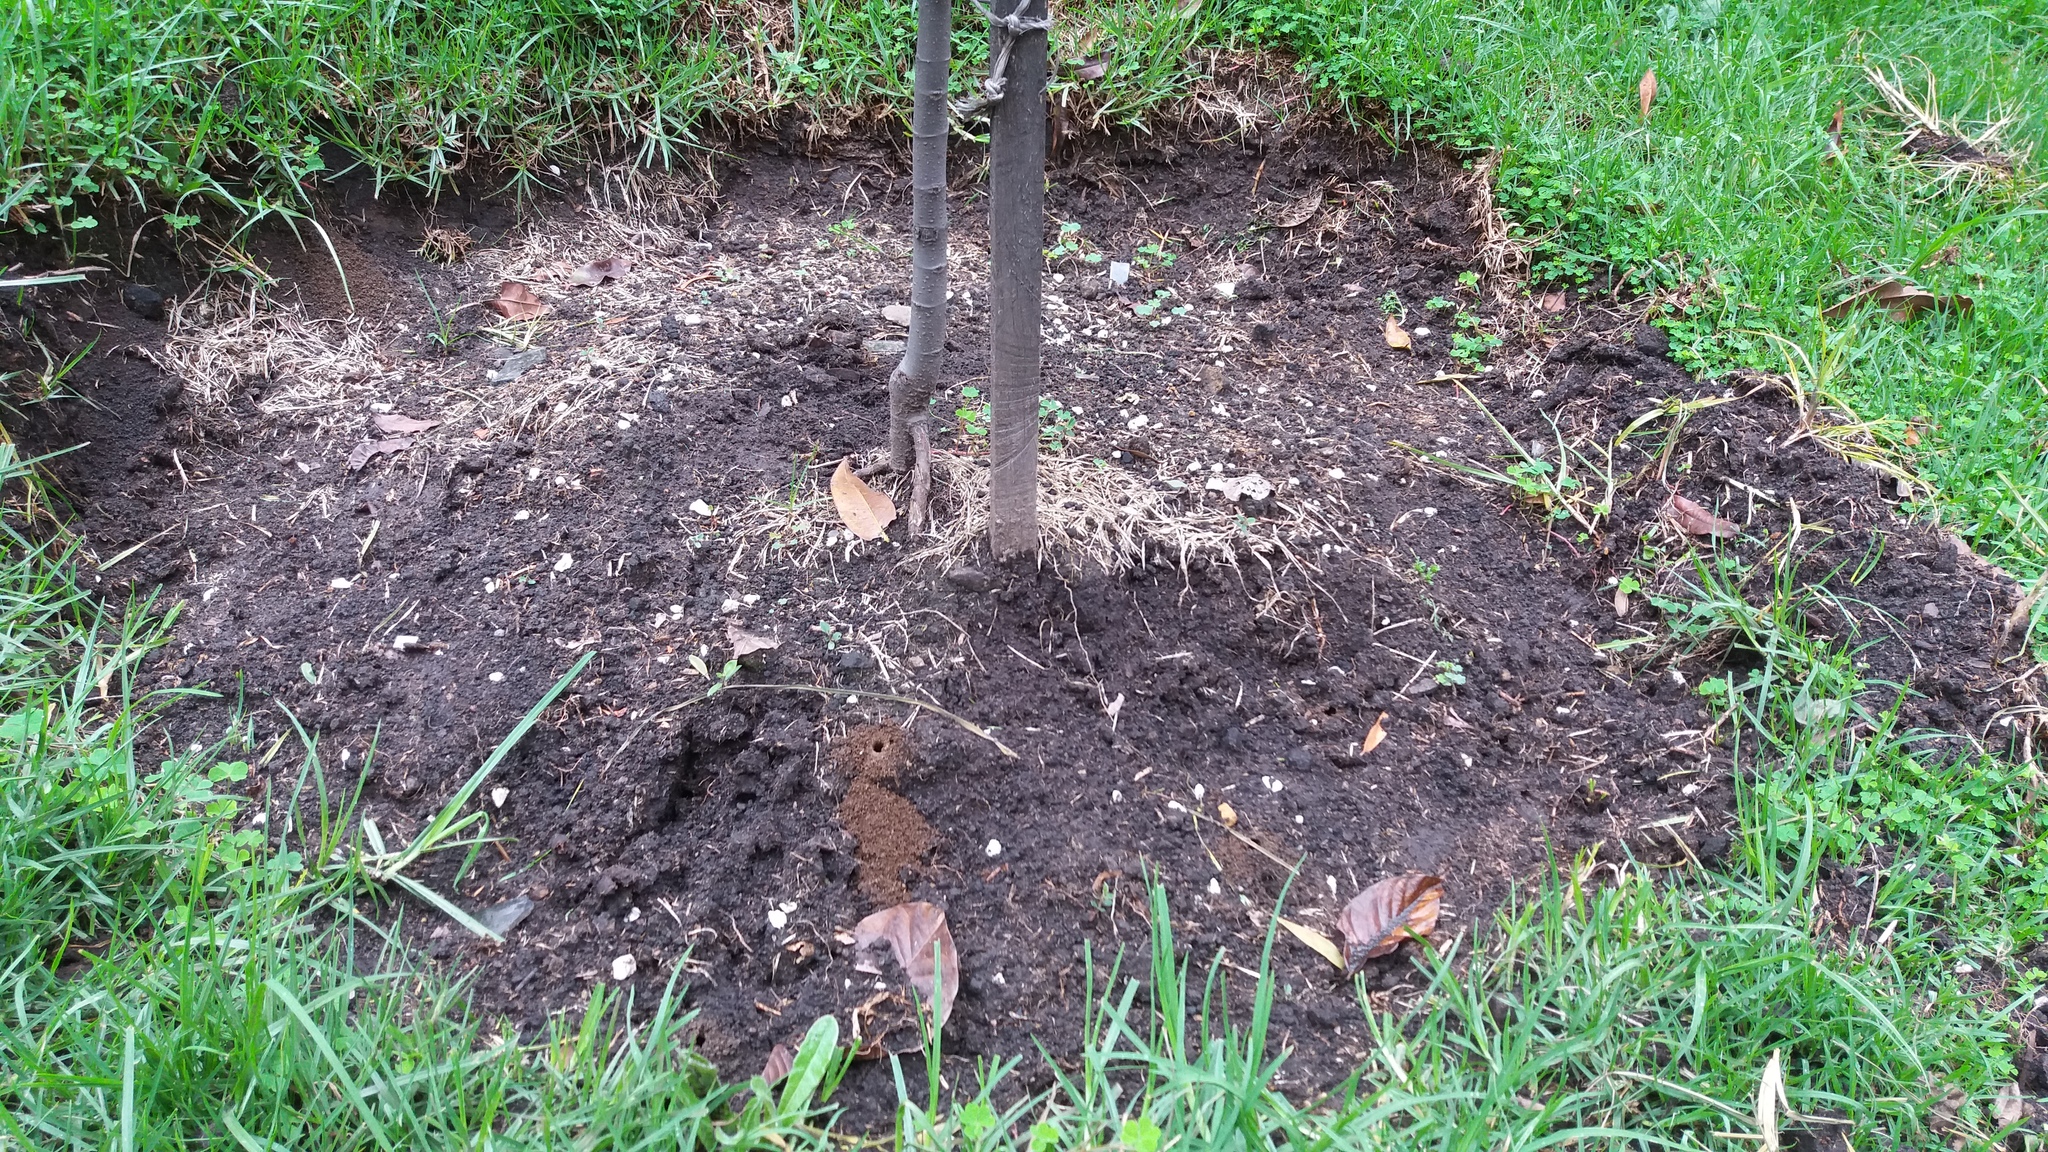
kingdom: Animalia
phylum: Arthropoda
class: Insecta
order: Hymenoptera
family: Apidae
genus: Thygater
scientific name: Thygater aethiops
